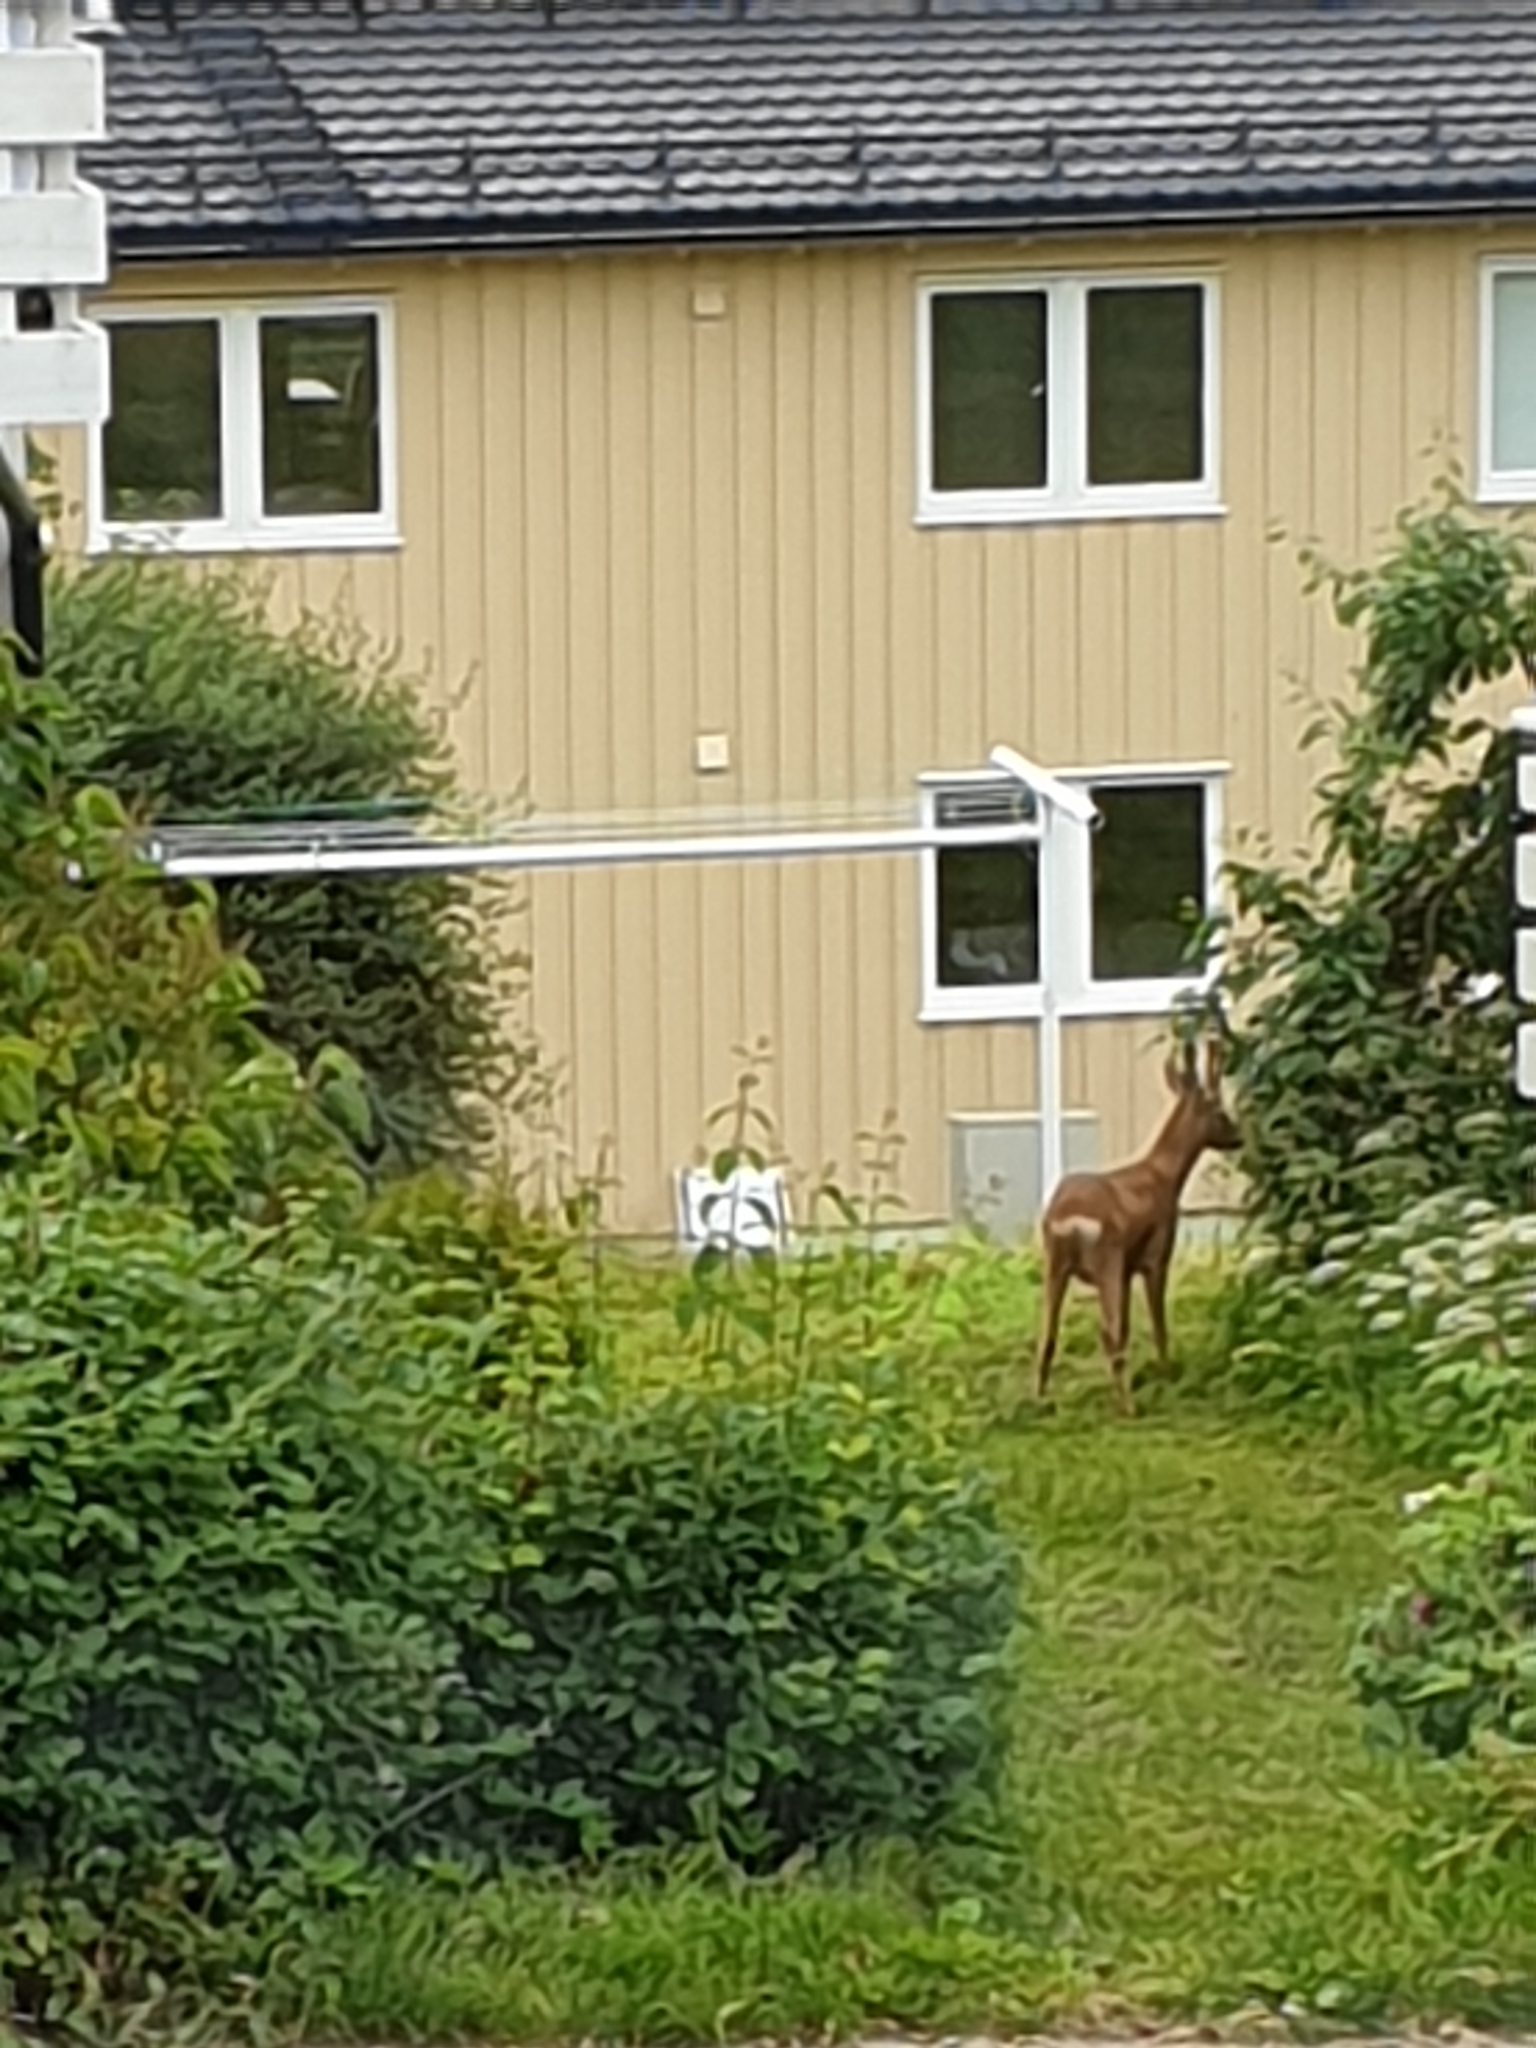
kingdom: Animalia
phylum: Chordata
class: Mammalia
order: Artiodactyla
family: Cervidae
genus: Capreolus
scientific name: Capreolus capreolus
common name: Western roe deer
